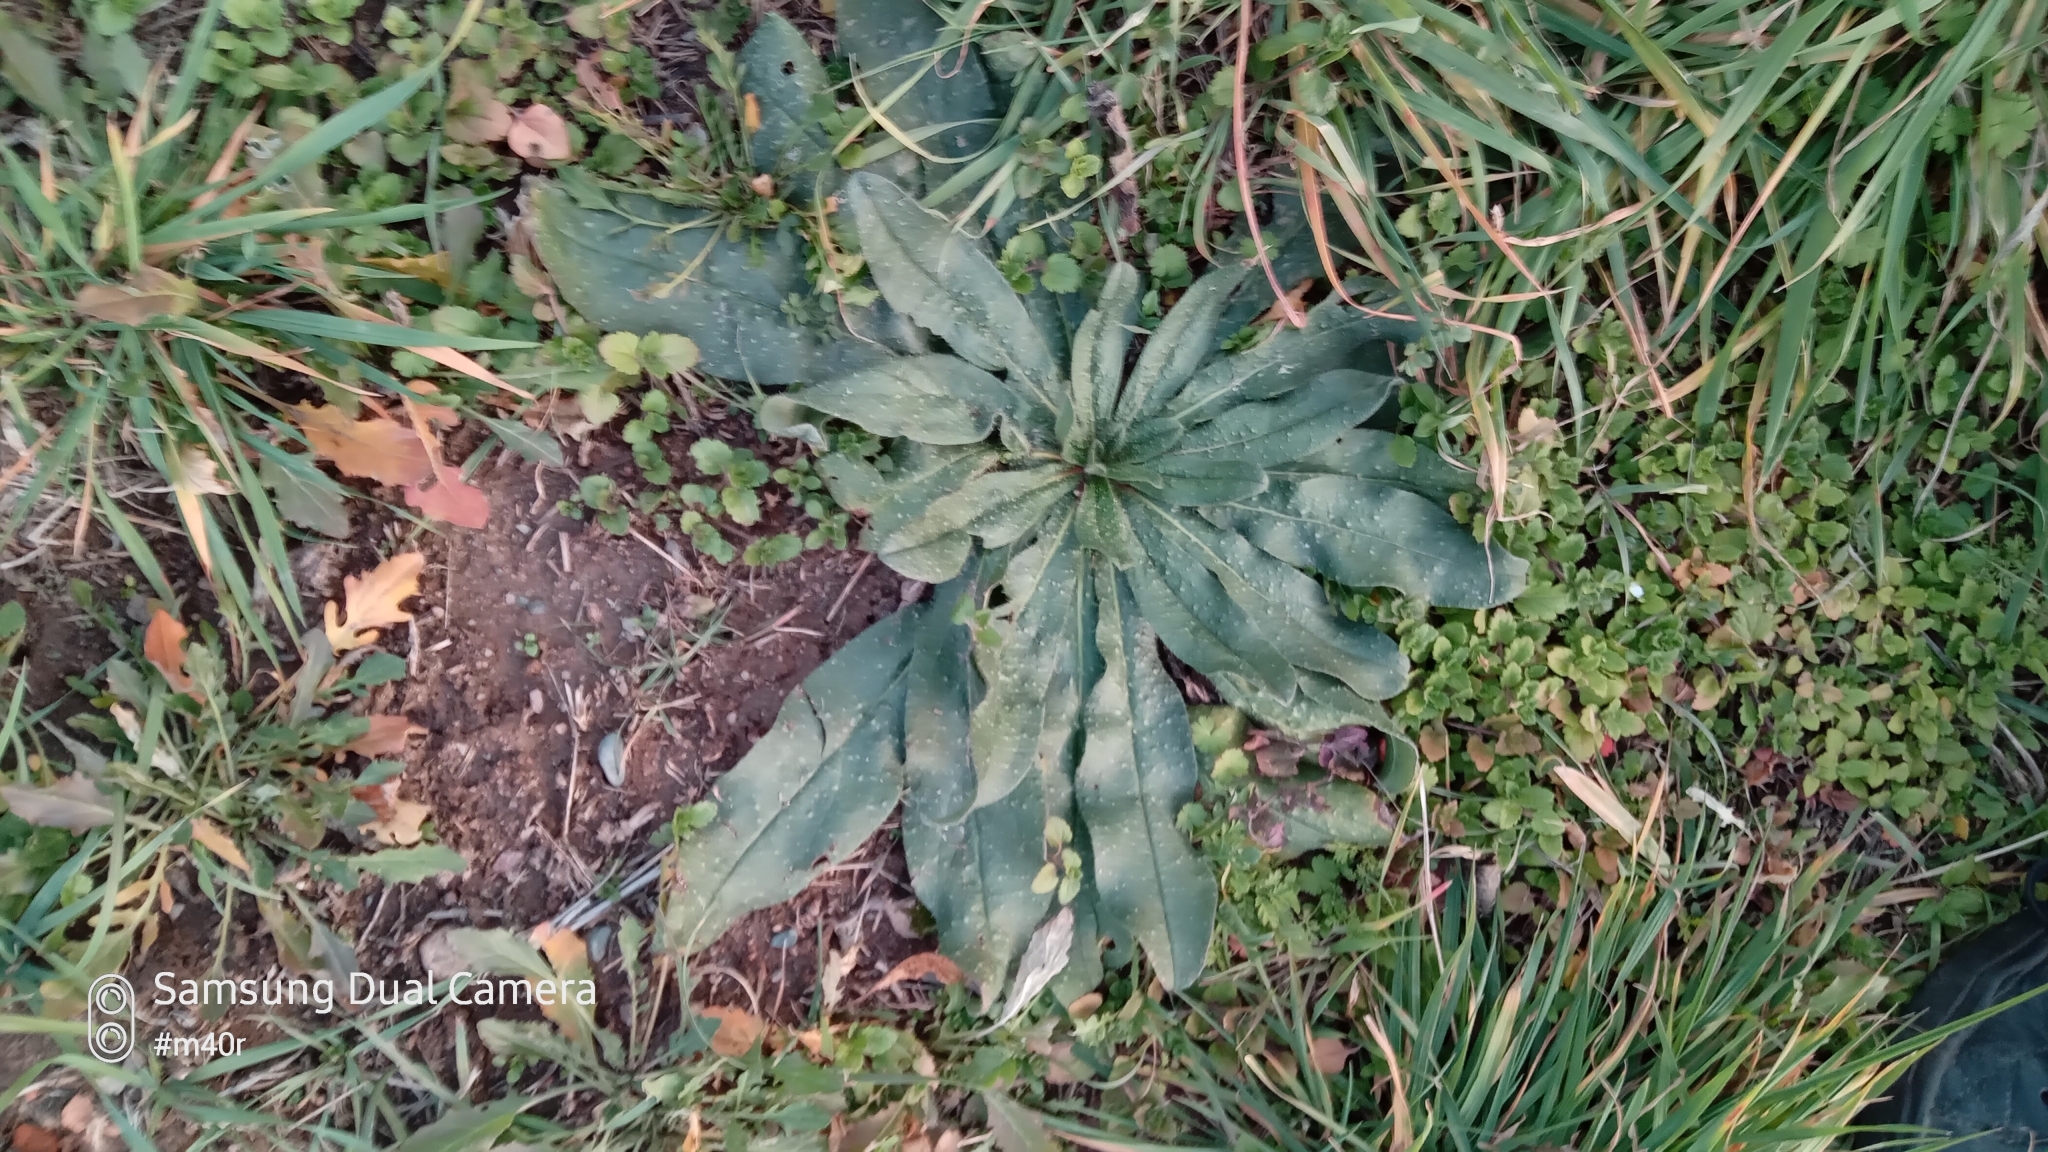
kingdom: Plantae
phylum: Tracheophyta
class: Magnoliopsida
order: Boraginales
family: Boraginaceae
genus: Echium
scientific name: Echium vulgare
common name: Common viper's bugloss
